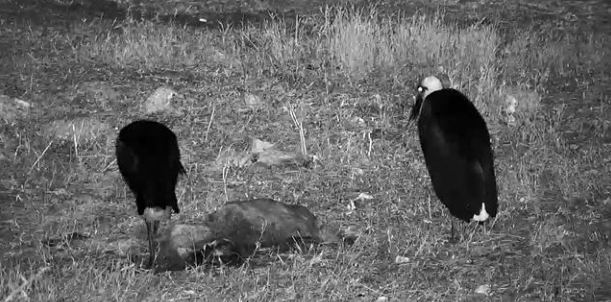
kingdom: Animalia
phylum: Chordata
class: Aves
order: Ciconiiformes
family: Ciconiidae
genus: Ciconia
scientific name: Ciconia microscelis
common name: African woollyneck
